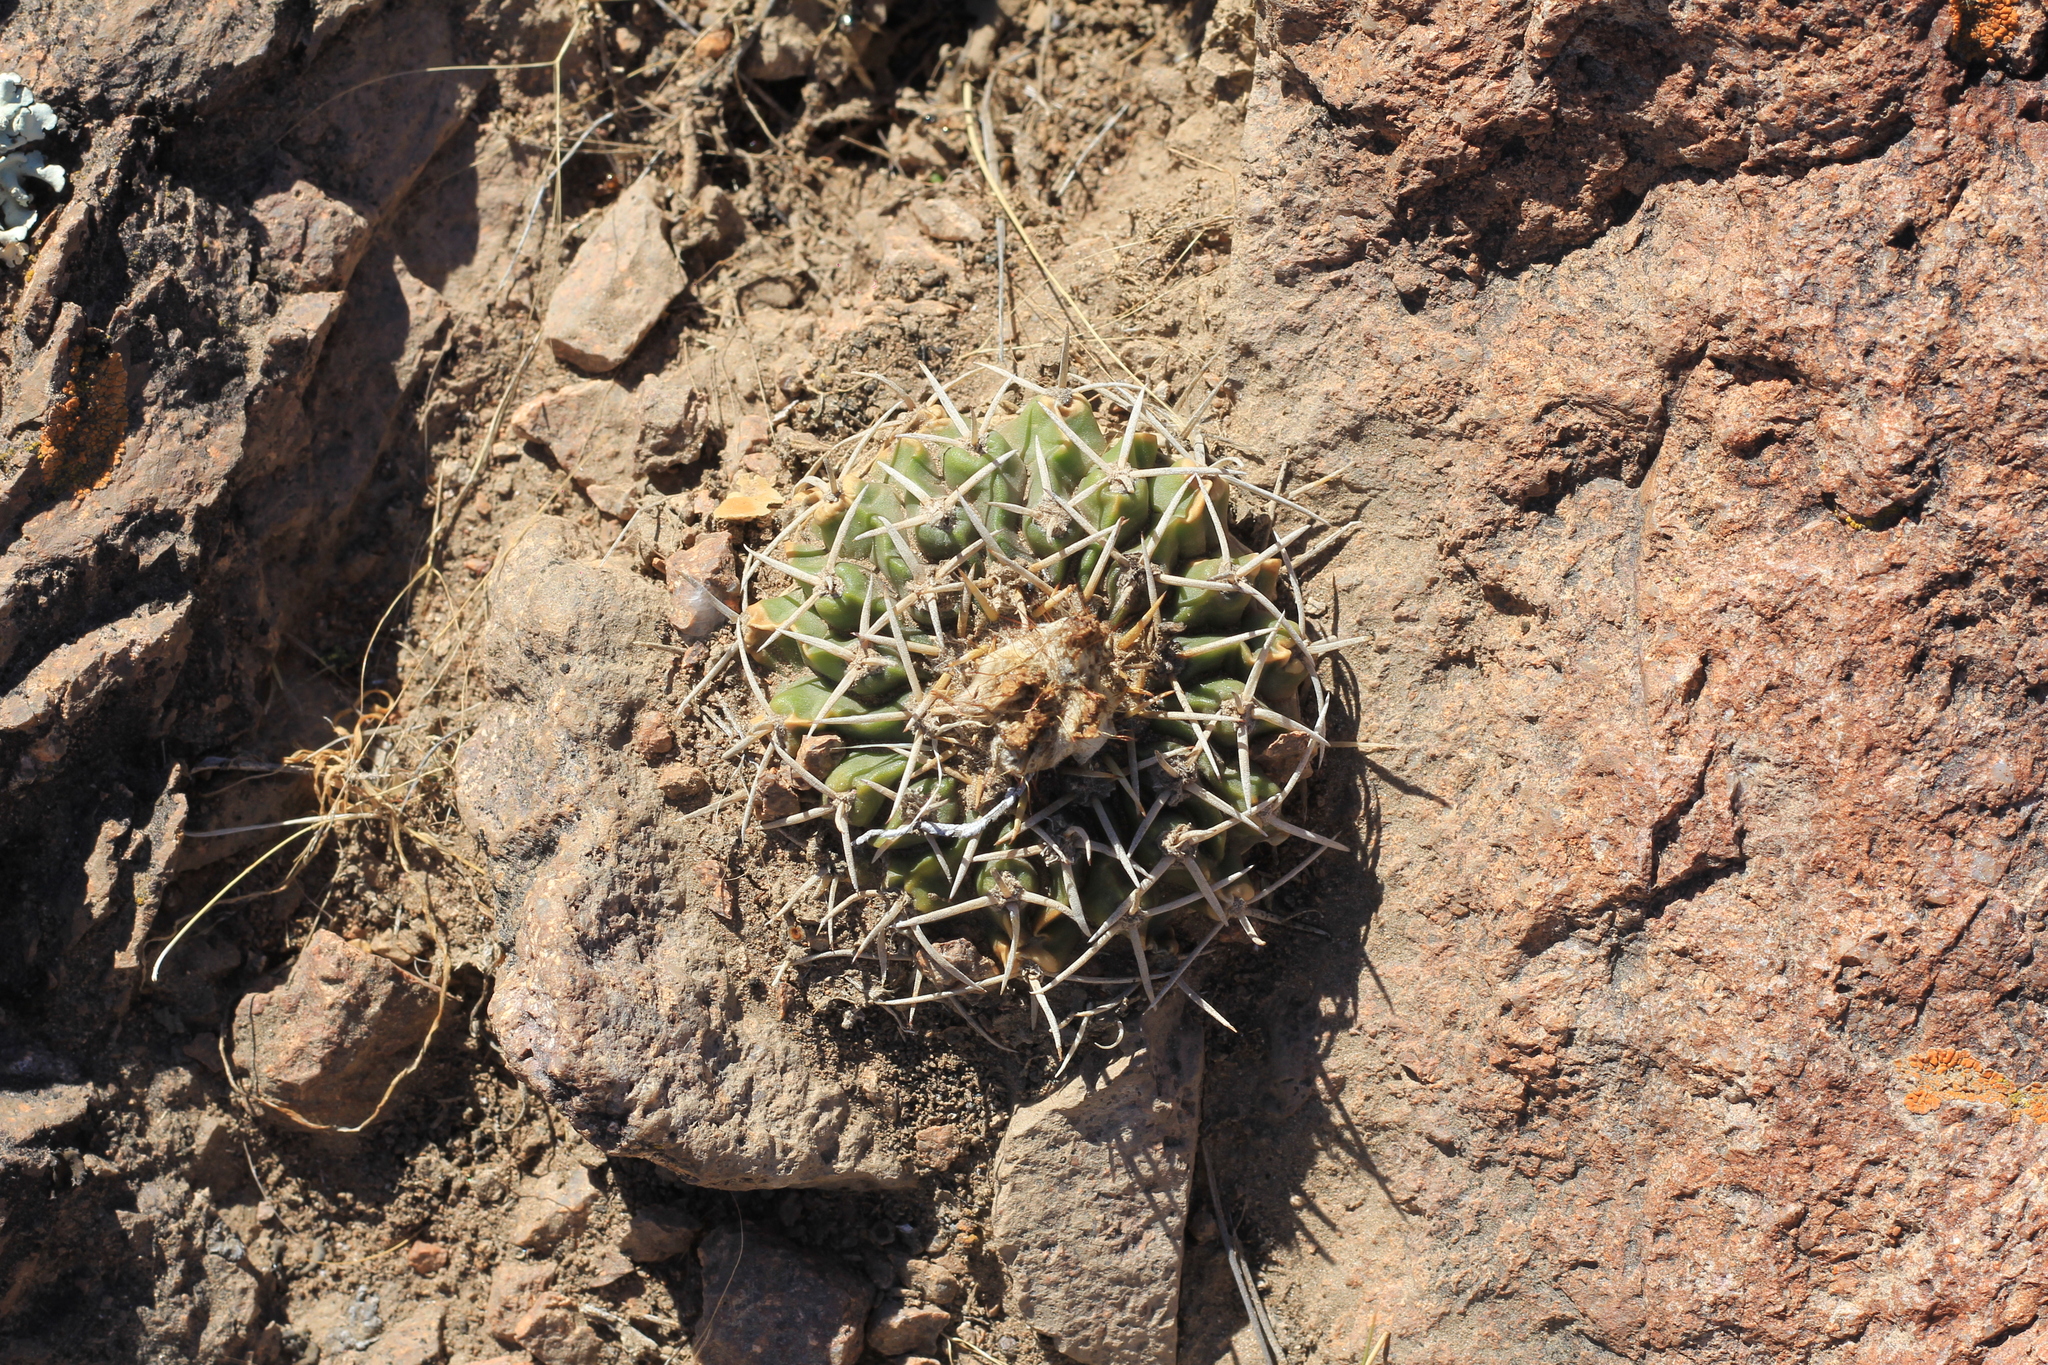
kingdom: Plantae
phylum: Tracheophyta
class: Magnoliopsida
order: Caryophyllales
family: Cactaceae
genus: Parodia
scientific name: Parodia erinacea
